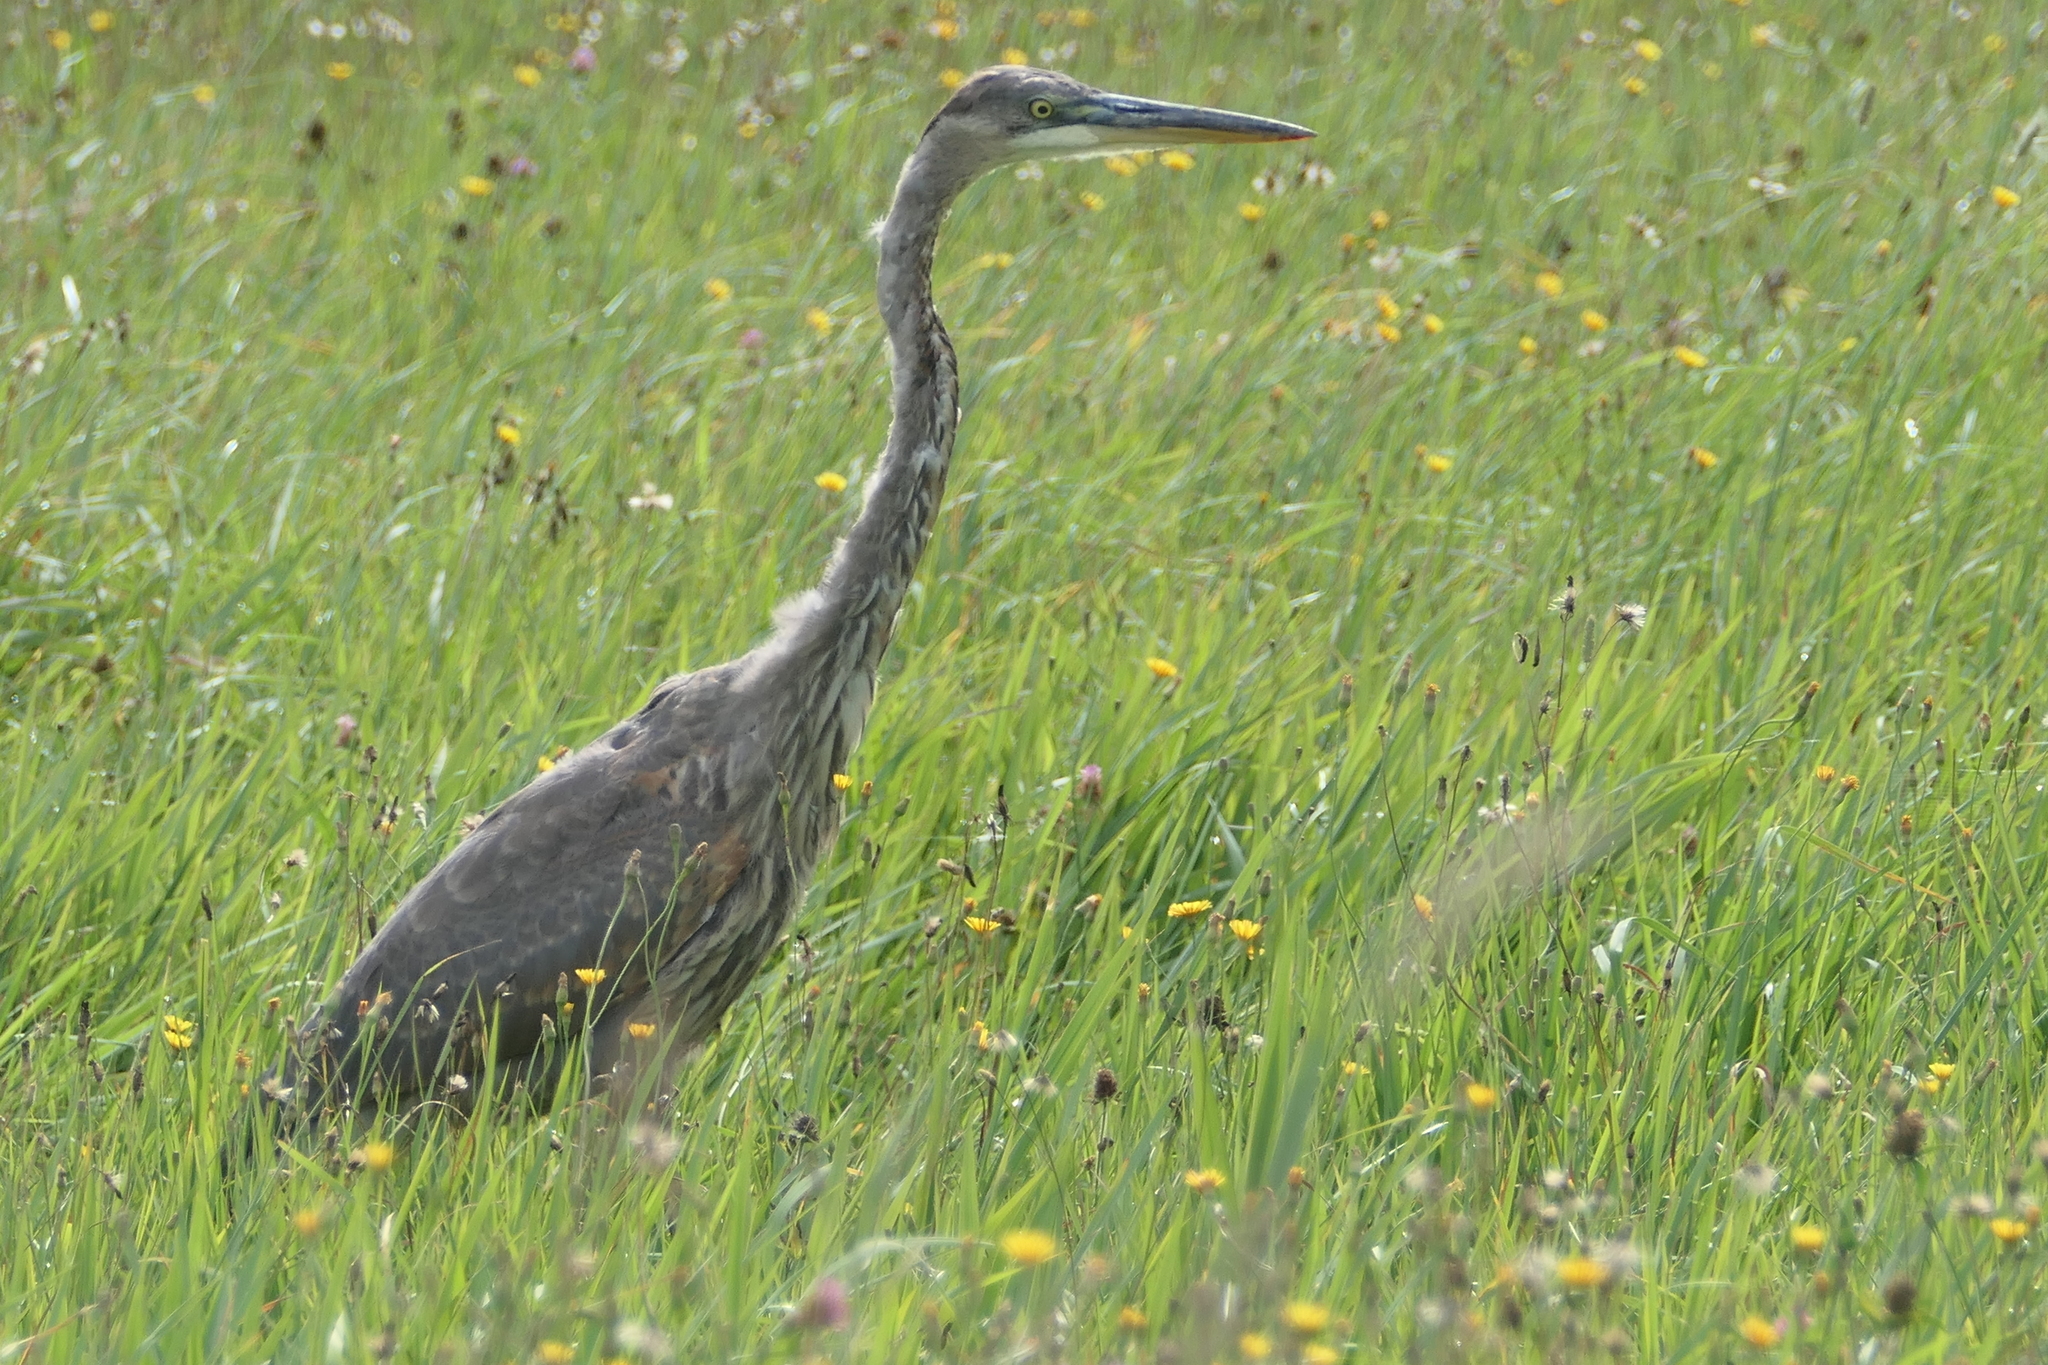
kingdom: Animalia
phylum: Chordata
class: Aves
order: Pelecaniformes
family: Ardeidae
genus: Ardea
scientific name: Ardea herodias
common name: Great blue heron
